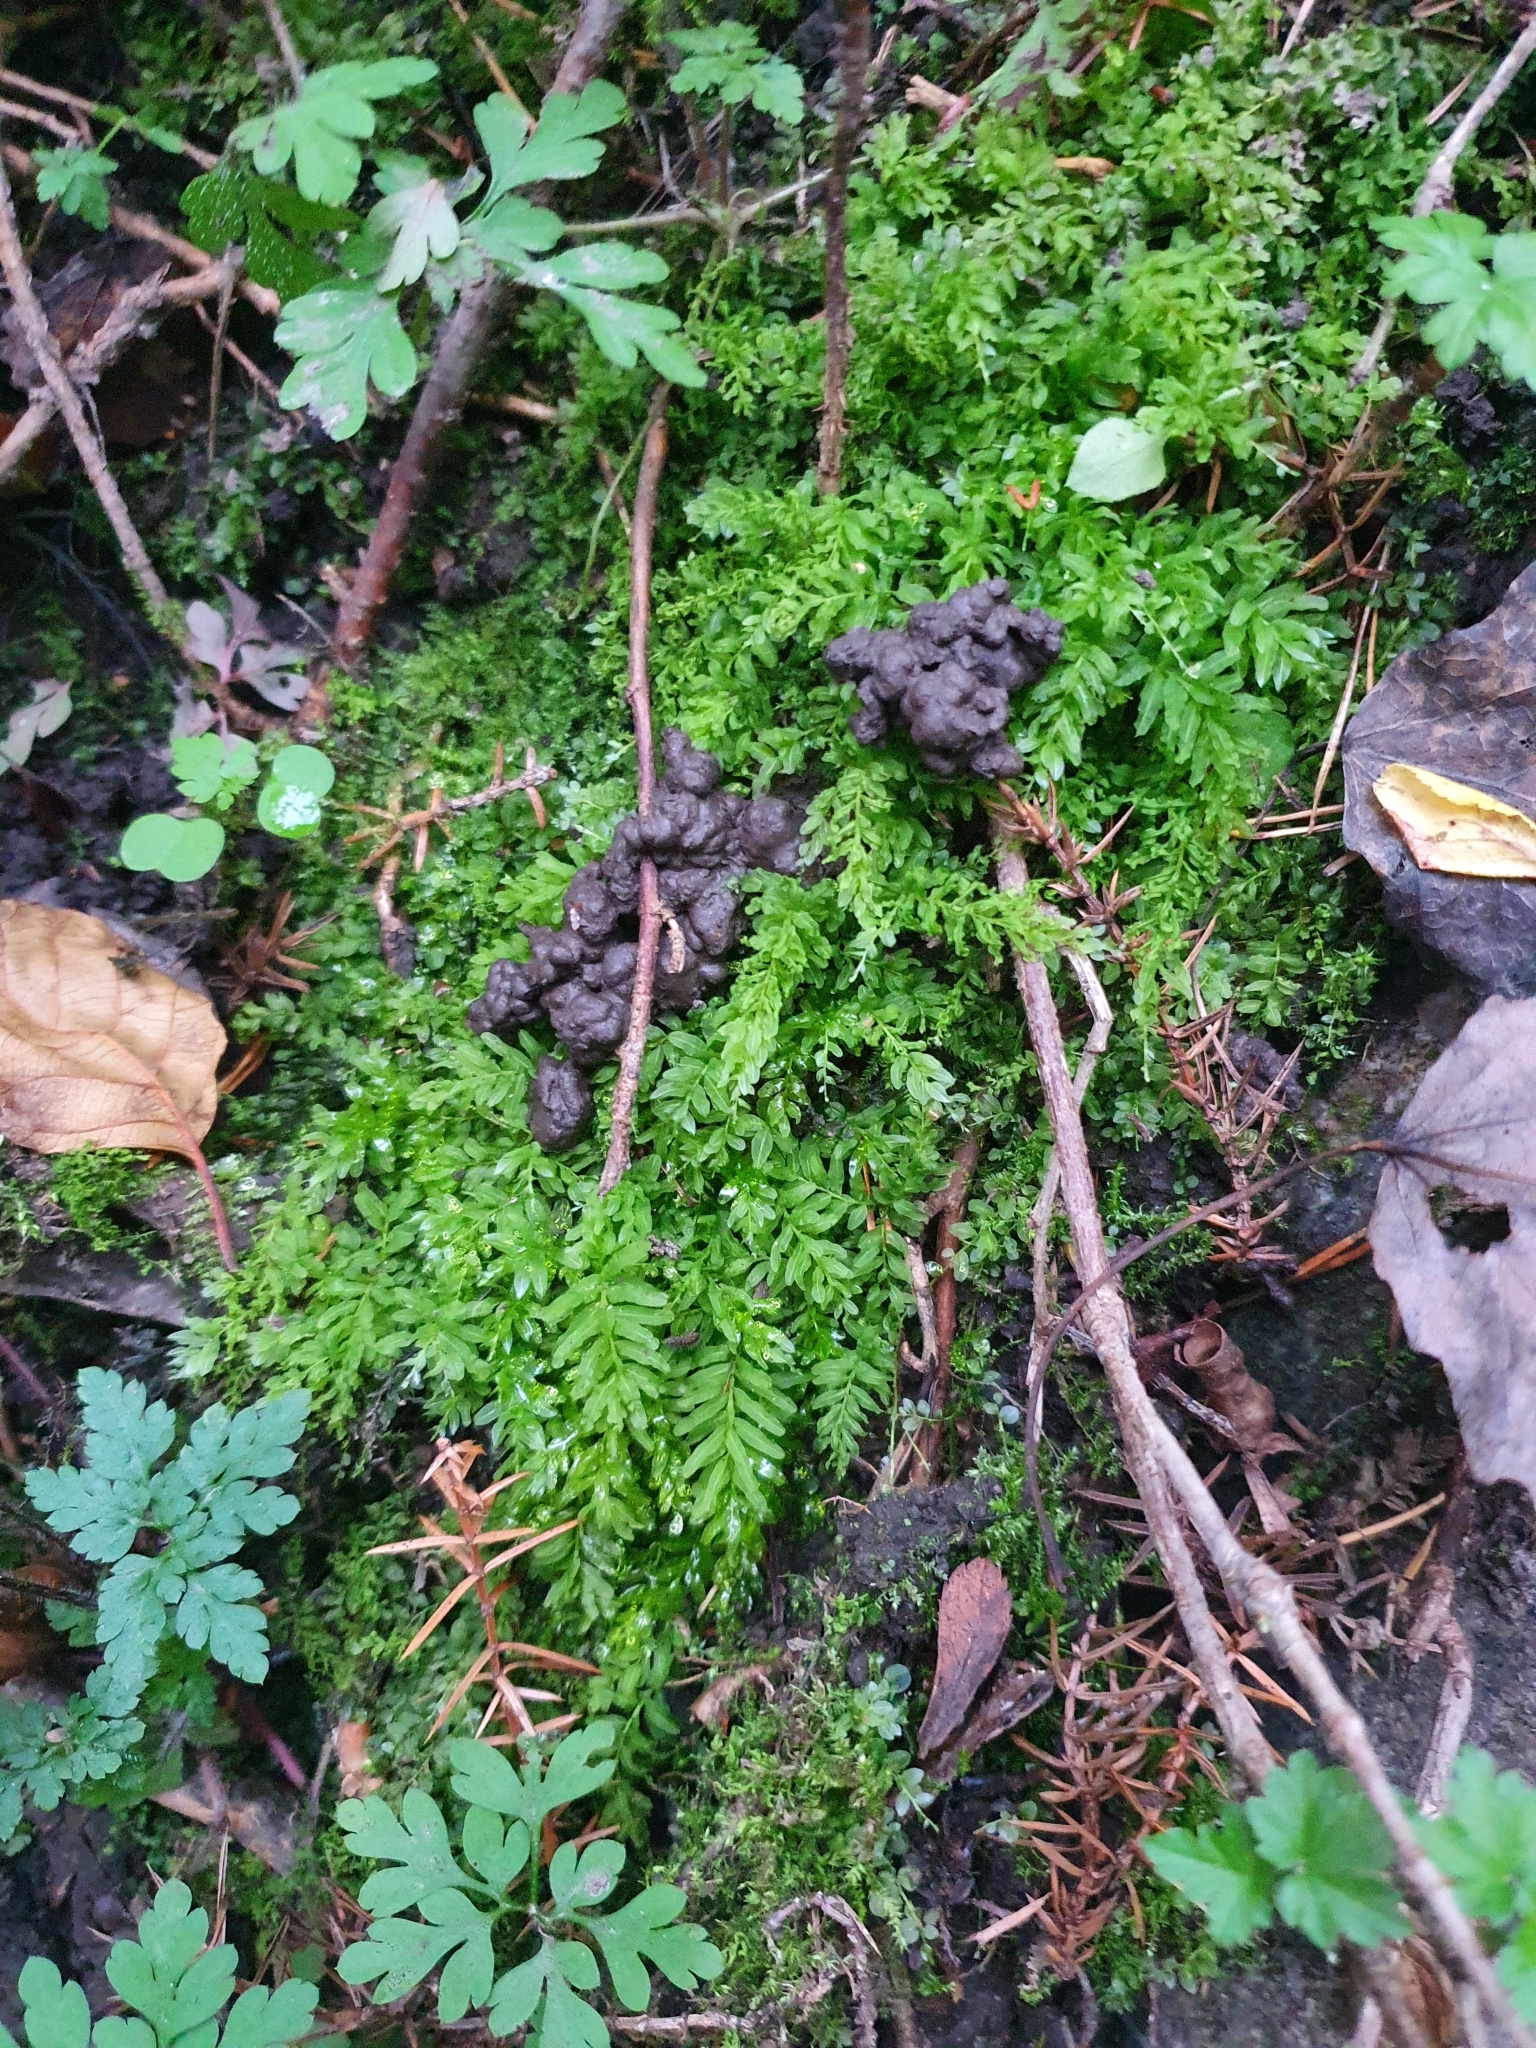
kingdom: Plantae
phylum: Bryophyta
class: Bryopsida
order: Bryales
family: Mniaceae
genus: Plagiomnium
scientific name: Plagiomnium undulatum
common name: Hart's-tongue thyme-moss
